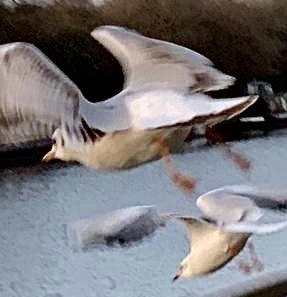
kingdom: Animalia
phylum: Chordata
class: Aves
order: Charadriiformes
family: Laridae
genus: Chroicocephalus
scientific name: Chroicocephalus ridibundus
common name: Black-headed gull
